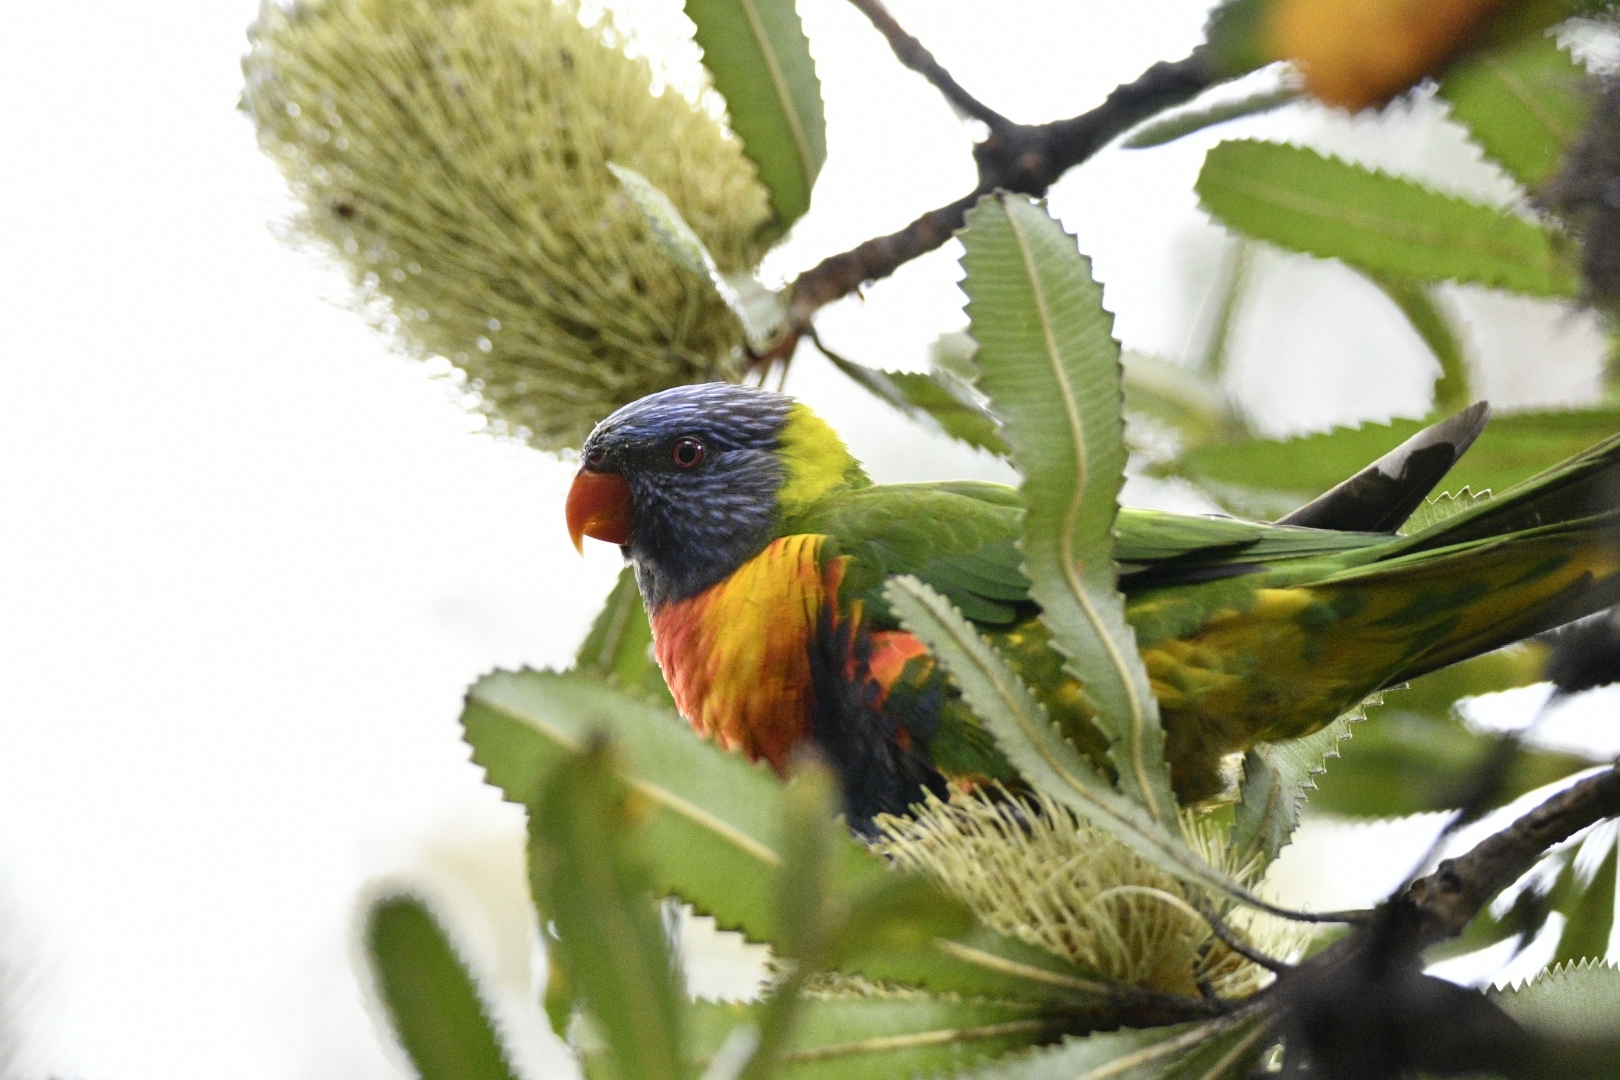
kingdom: Animalia
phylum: Chordata
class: Aves
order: Psittaciformes
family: Psittacidae
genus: Trichoglossus
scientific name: Trichoglossus haematodus
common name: Coconut lorikeet
